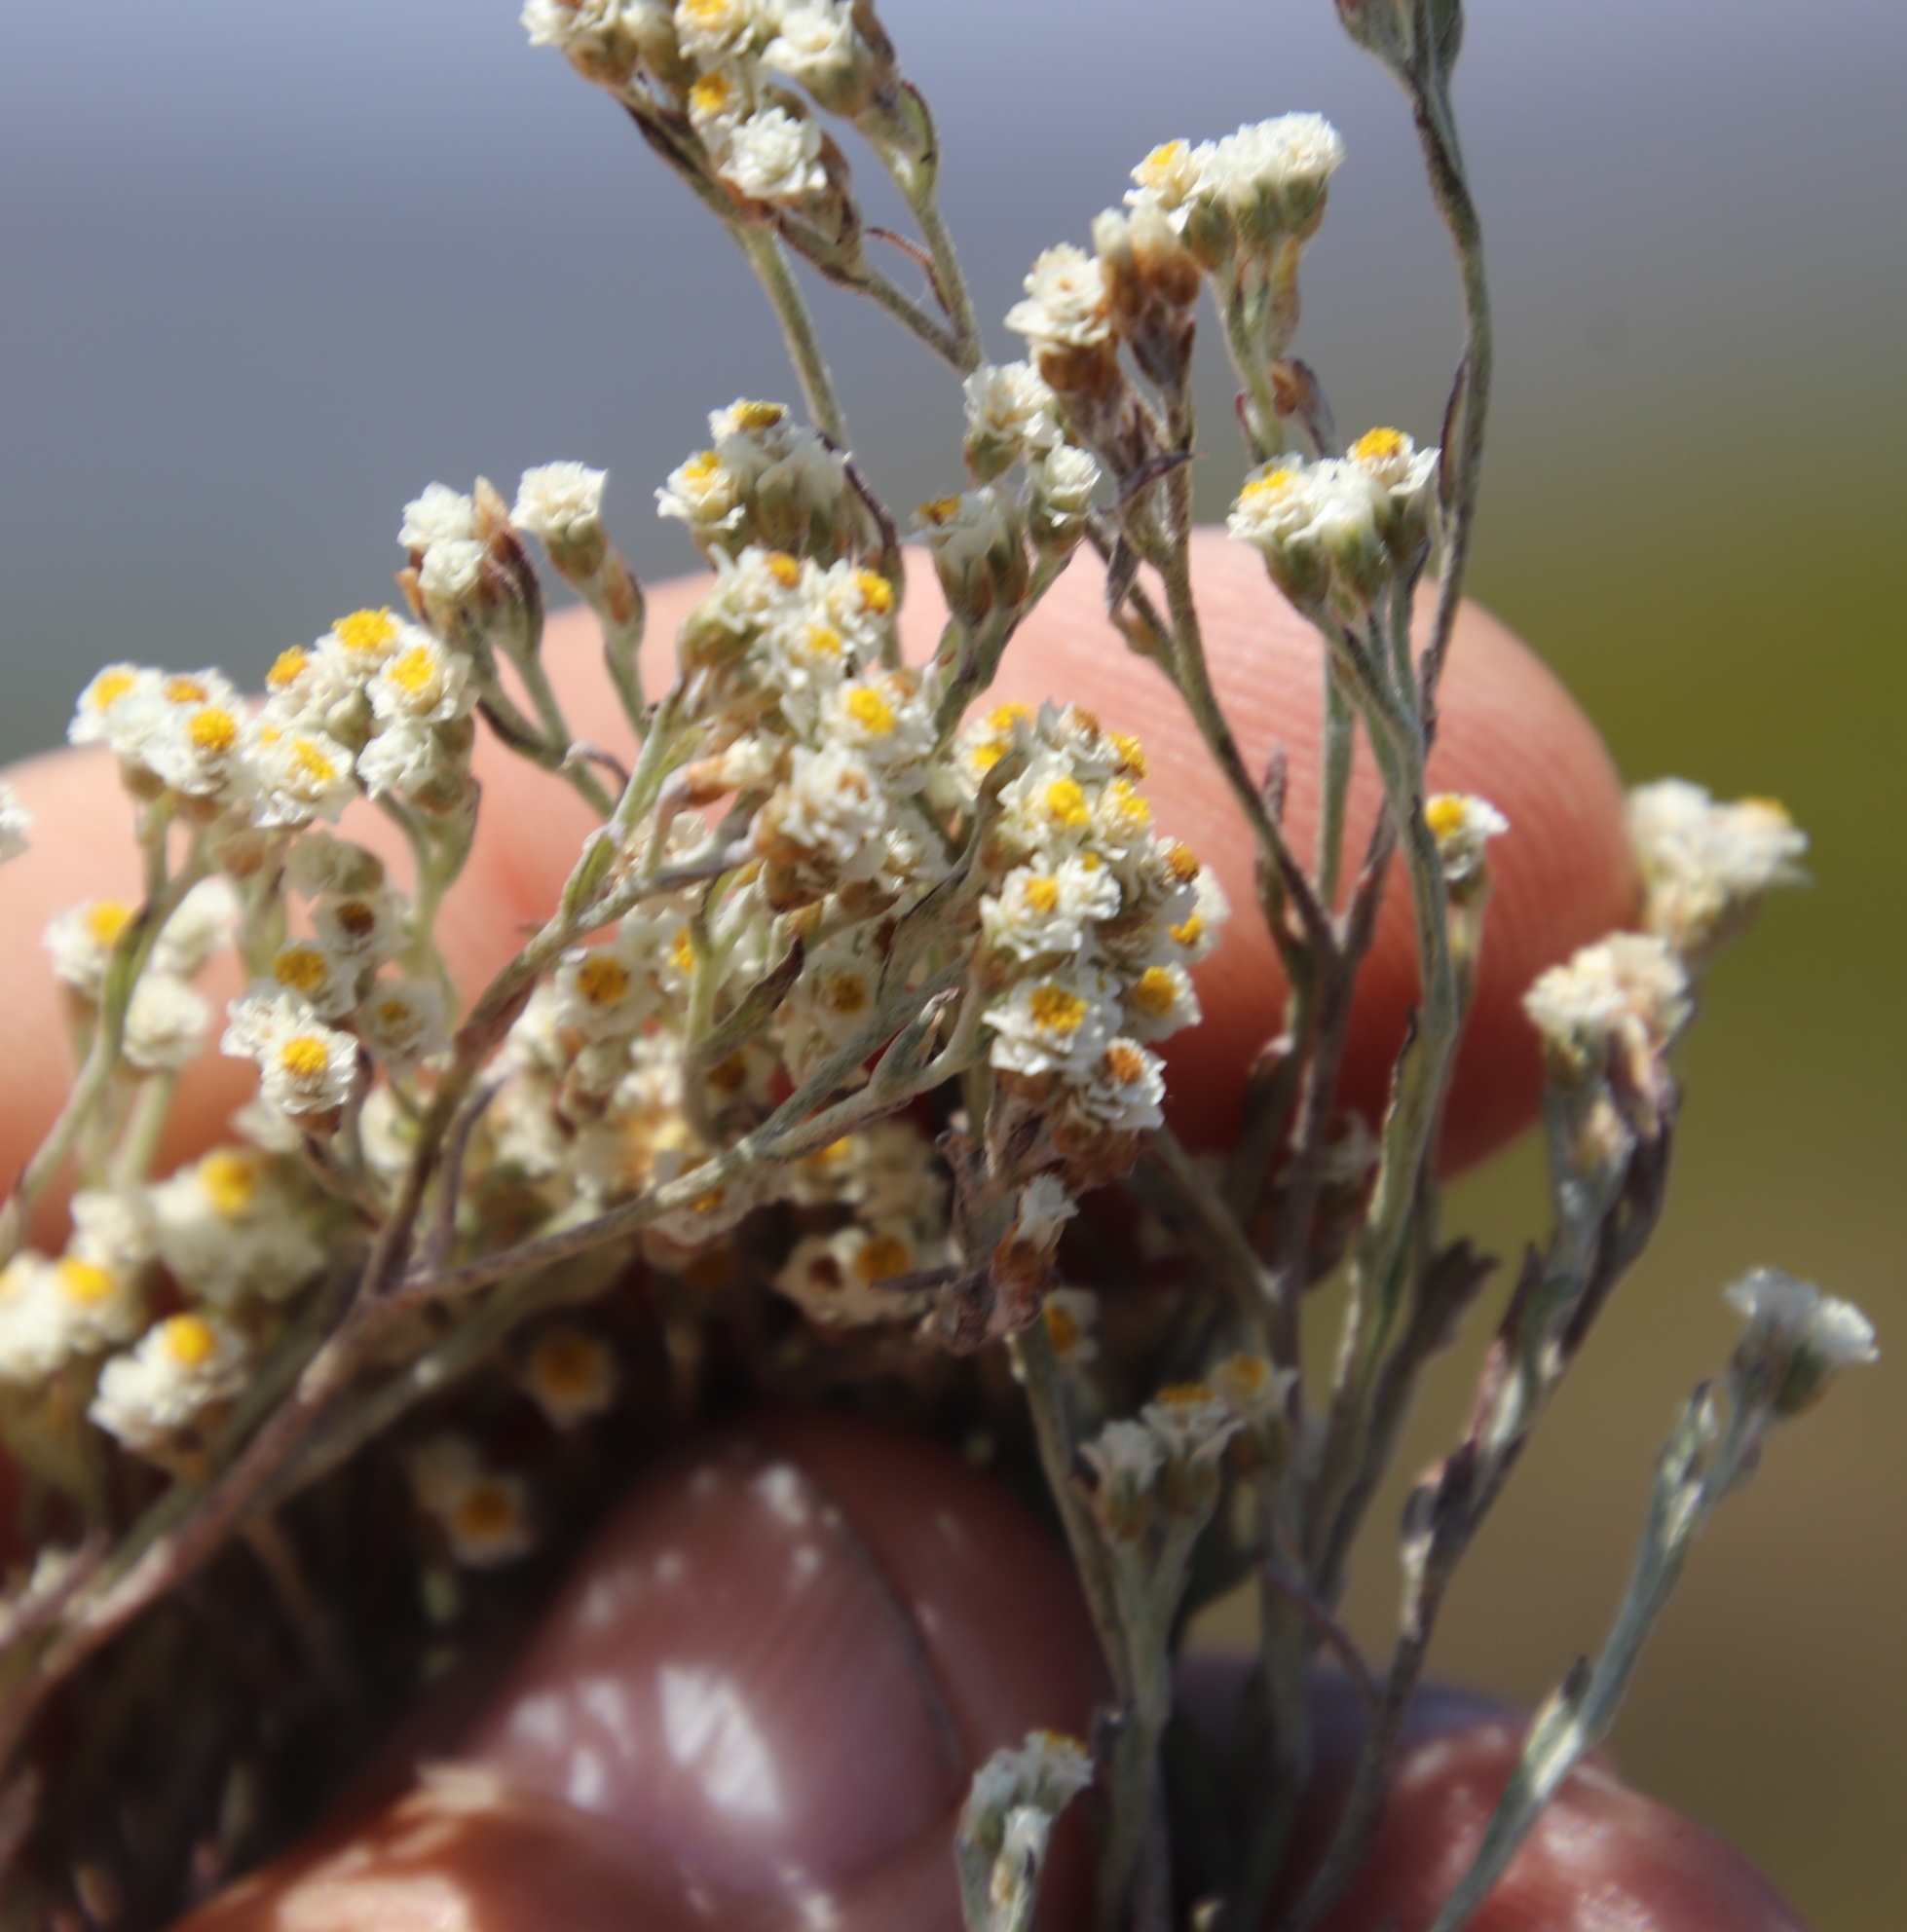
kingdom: Plantae
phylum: Tracheophyta
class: Magnoliopsida
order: Asterales
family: Asteraceae
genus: Helichrysum
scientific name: Helichrysum indicum
